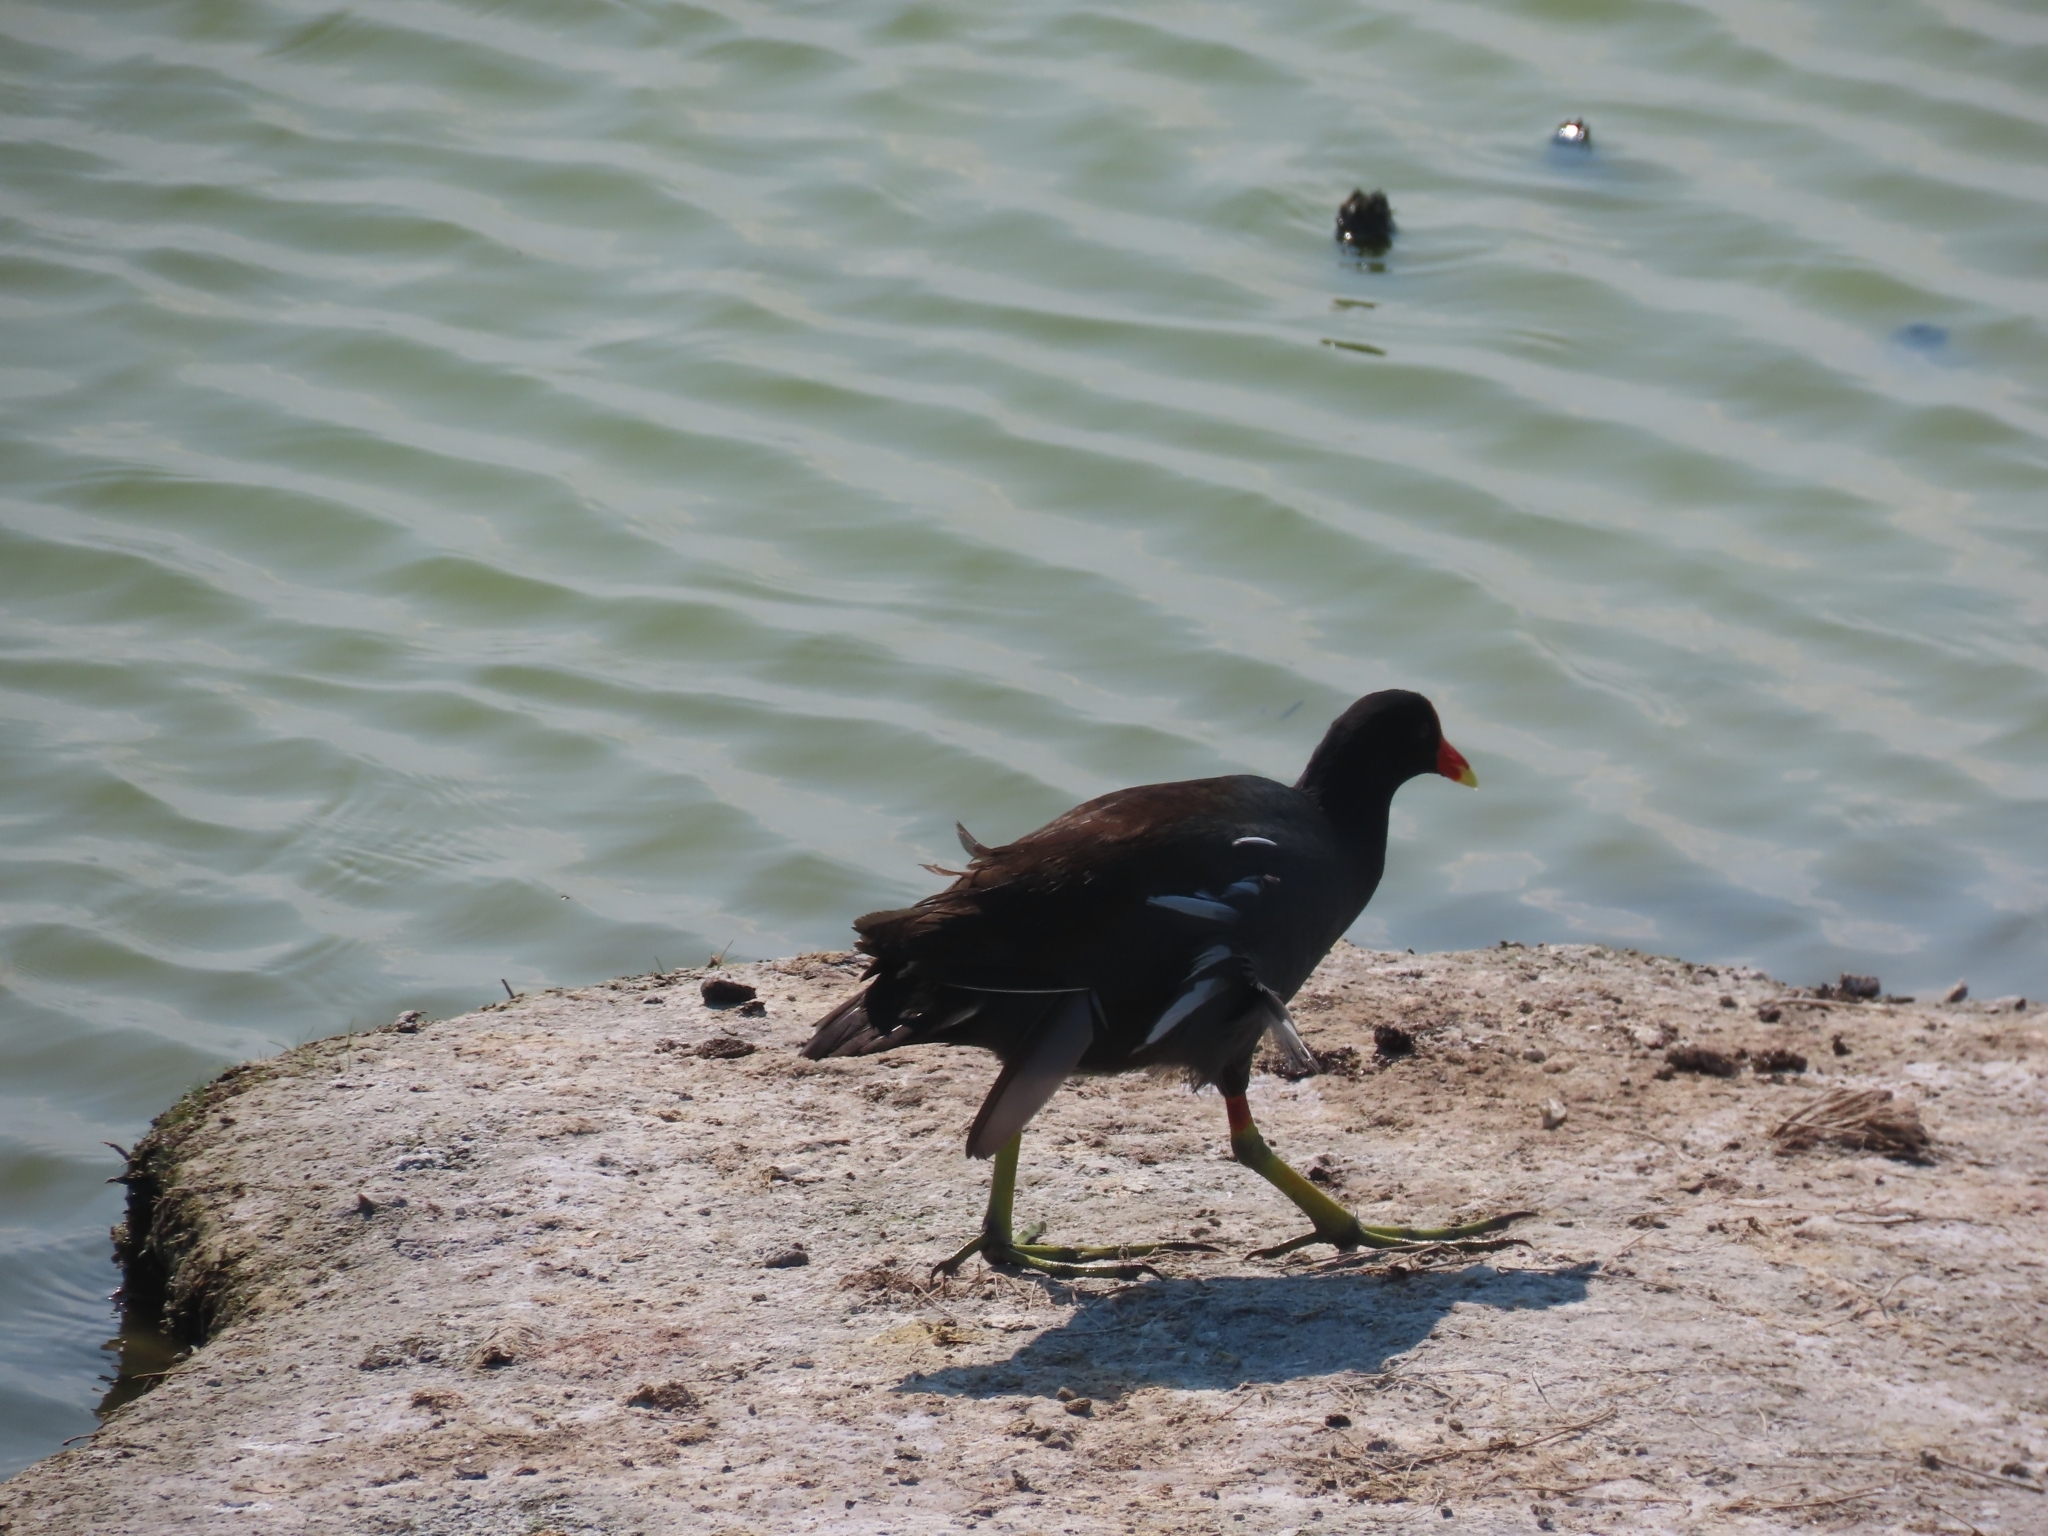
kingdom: Animalia
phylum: Chordata
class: Aves
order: Gruiformes
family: Rallidae
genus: Gallinula
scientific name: Gallinula chloropus
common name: Common moorhen
